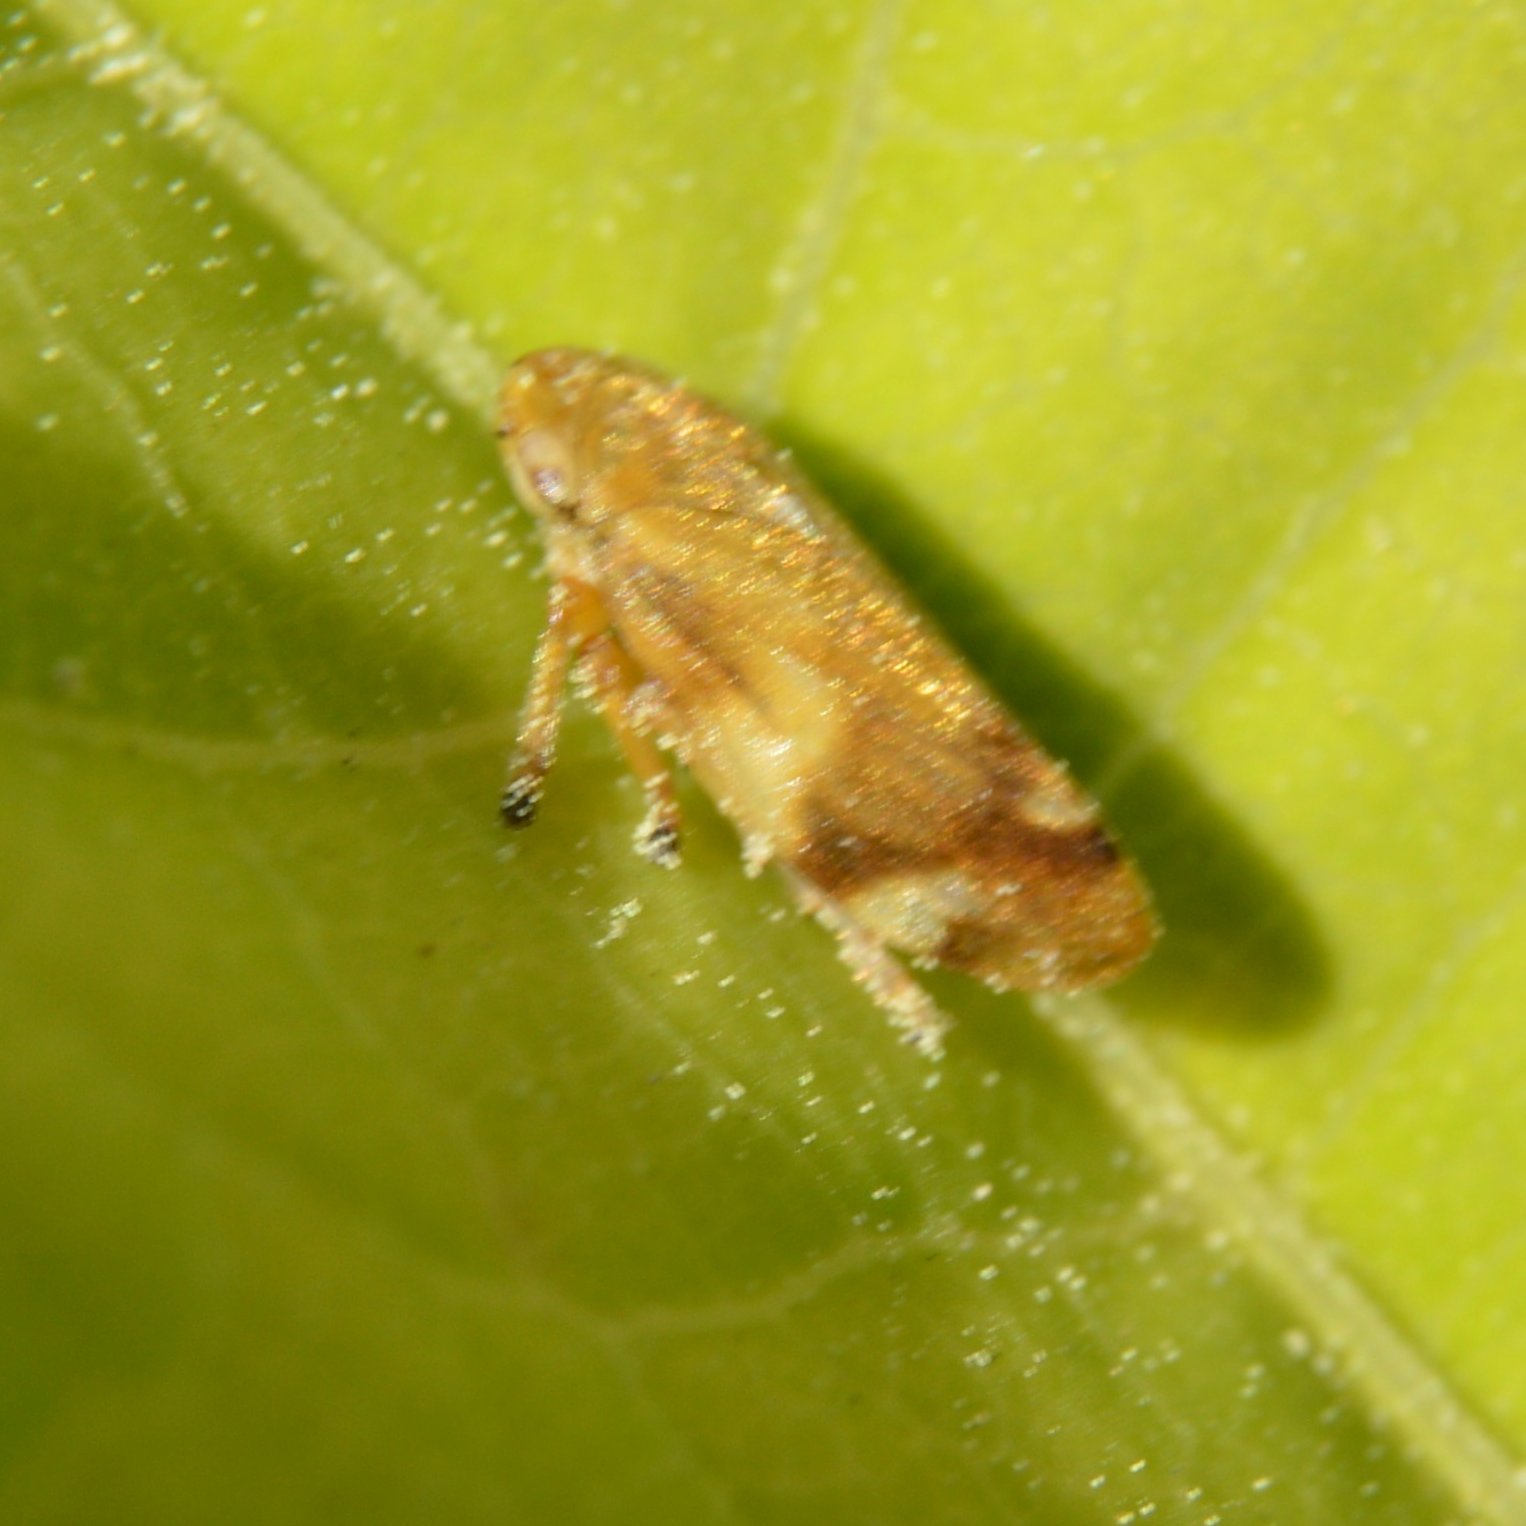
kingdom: Animalia
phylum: Arthropoda
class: Insecta
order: Hemiptera
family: Aphrophoridae
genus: Philaenus
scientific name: Philaenus spumarius
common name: Meadow spittlebug
